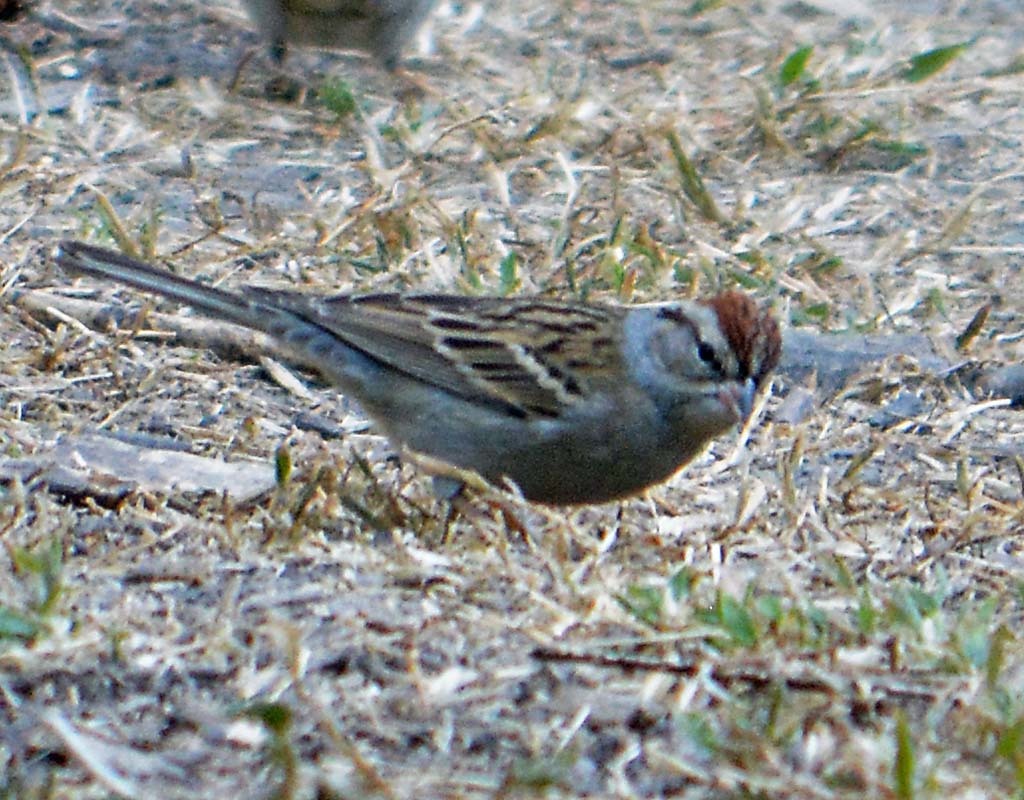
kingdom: Animalia
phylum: Chordata
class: Aves
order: Passeriformes
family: Passerellidae
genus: Spizella
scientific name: Spizella passerina
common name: Chipping sparrow
